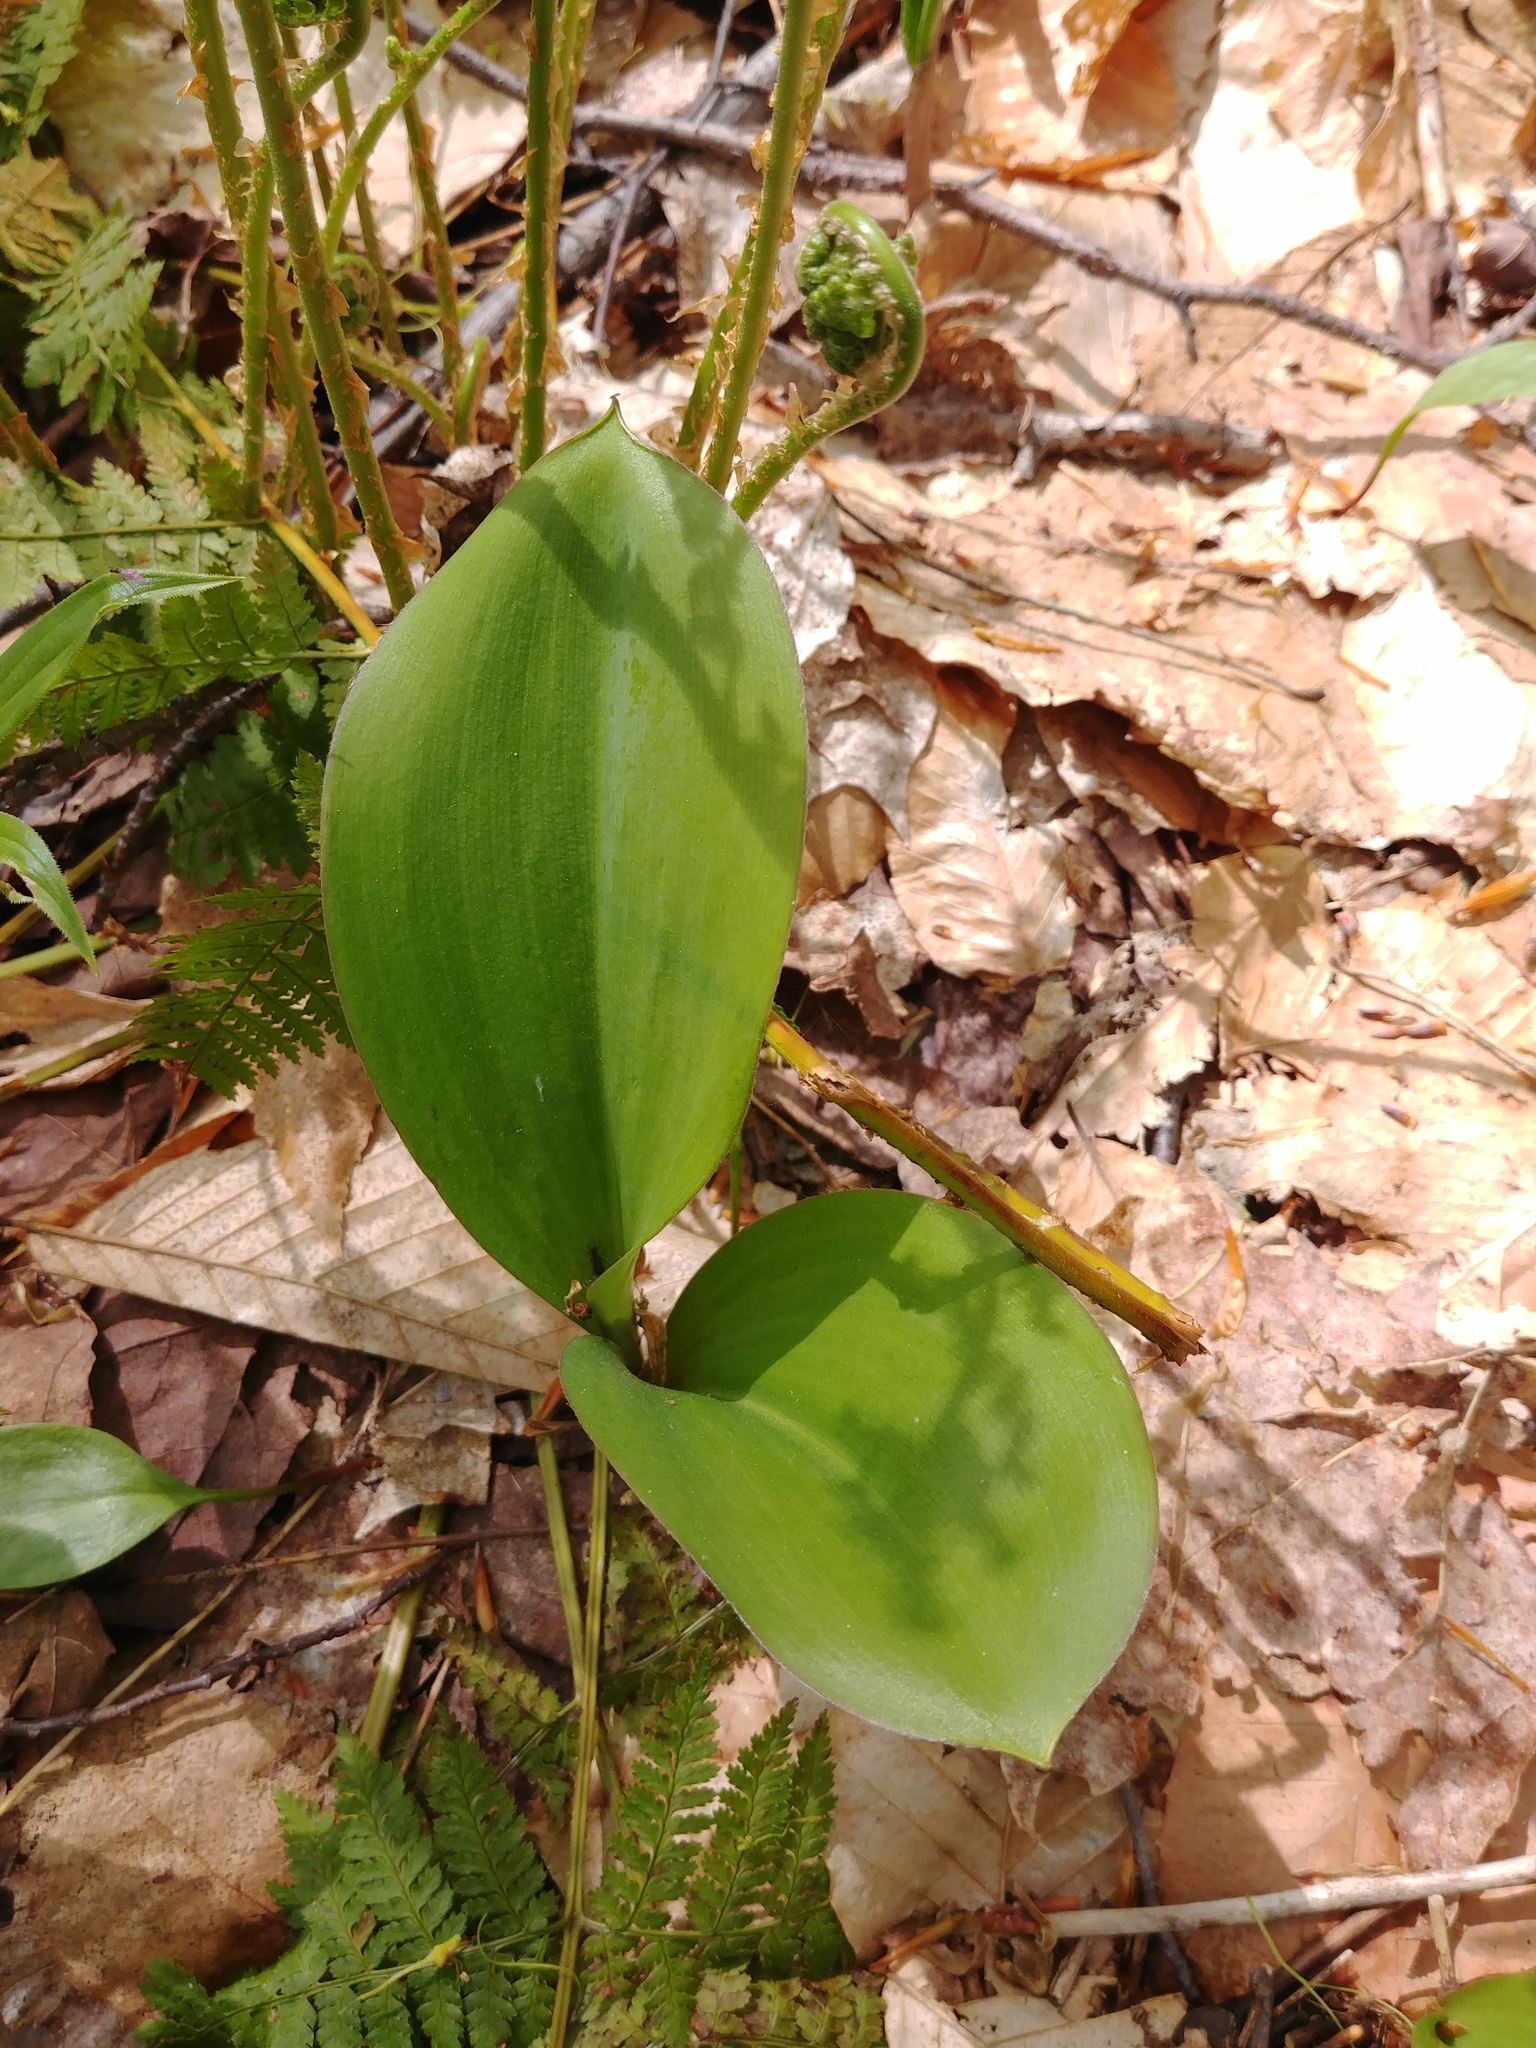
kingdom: Plantae
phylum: Tracheophyta
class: Liliopsida
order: Liliales
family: Liliaceae
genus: Clintonia
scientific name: Clintonia borealis
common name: Yellow clintonia
